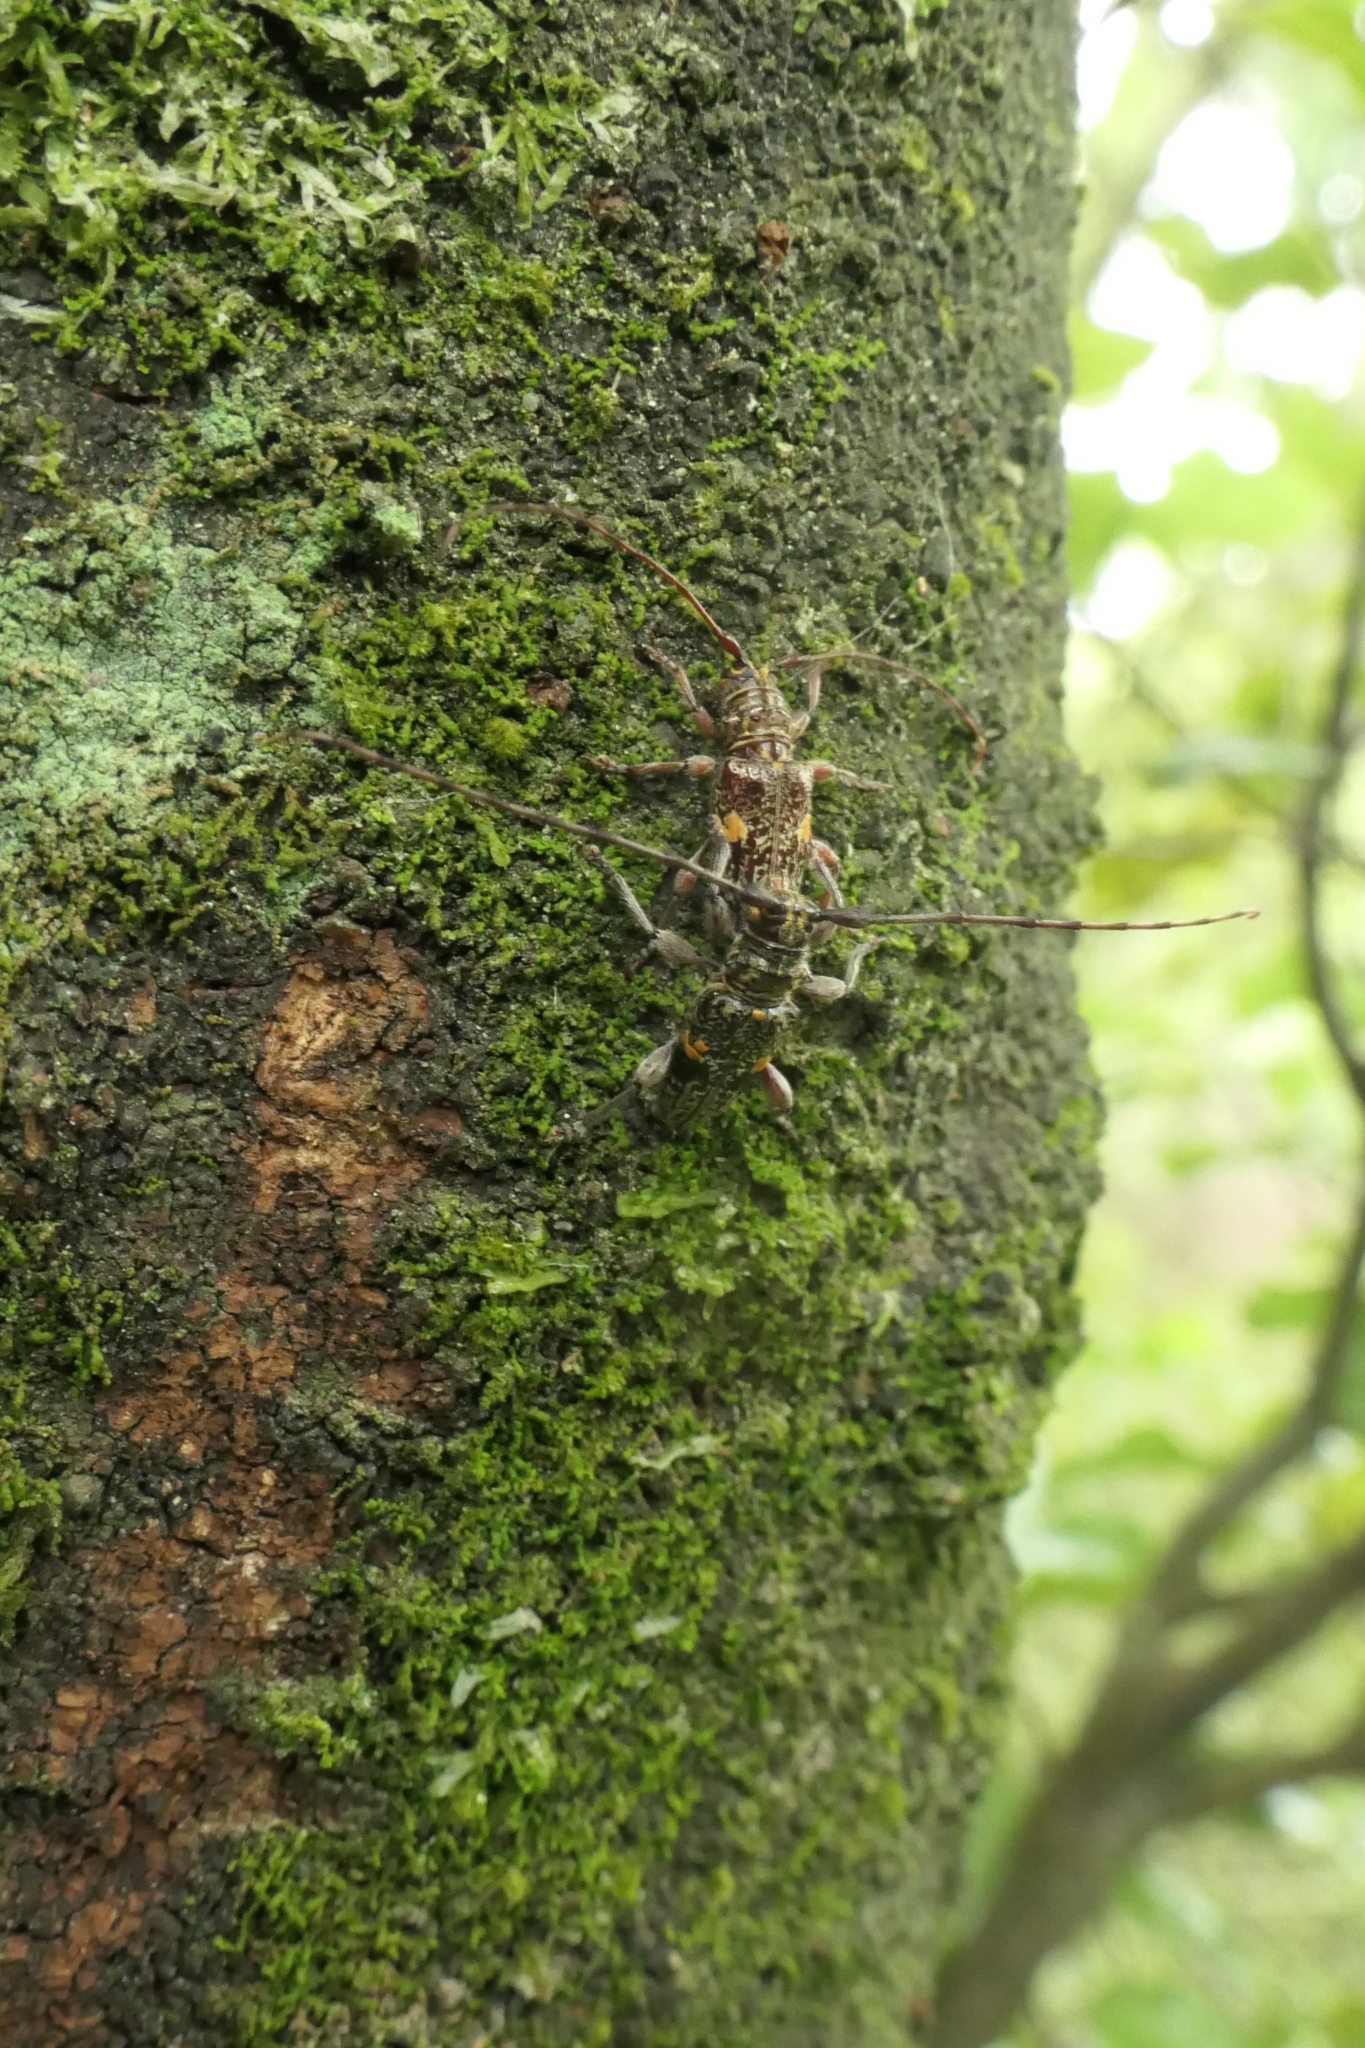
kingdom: Animalia
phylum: Arthropoda
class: Insecta
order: Coleoptera
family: Cerambycidae
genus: Hybolasius
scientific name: Hybolasius
